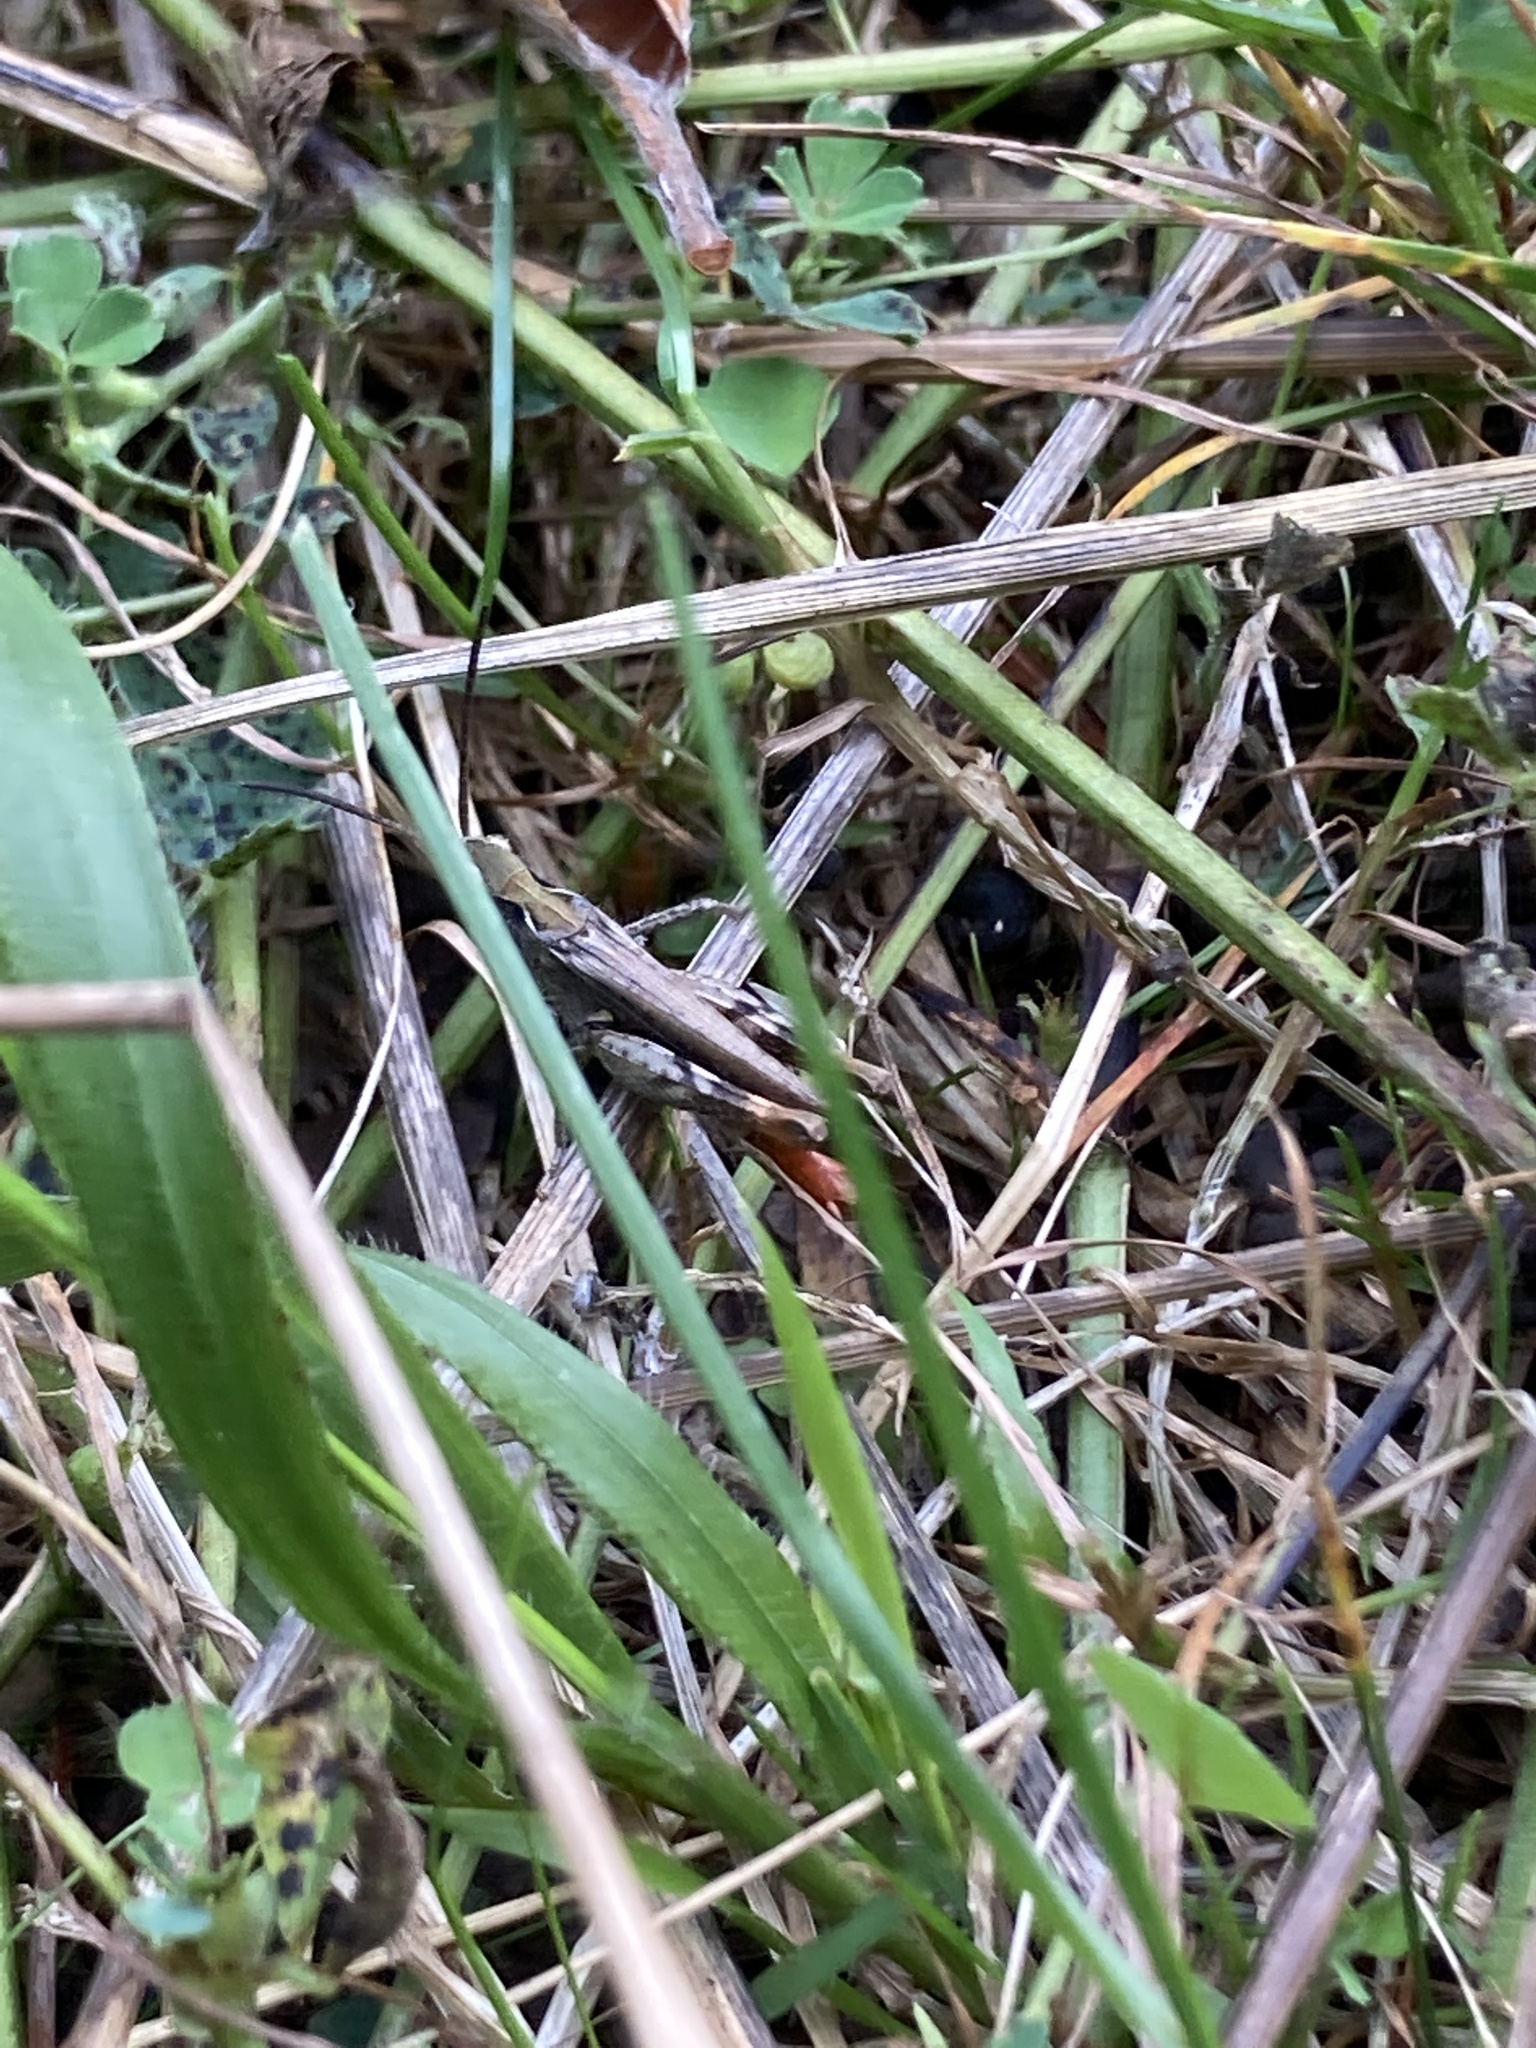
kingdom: Animalia
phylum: Arthropoda
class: Insecta
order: Orthoptera
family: Acrididae
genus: Chorthippus
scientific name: Chorthippus brunneus
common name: Field grasshopper
